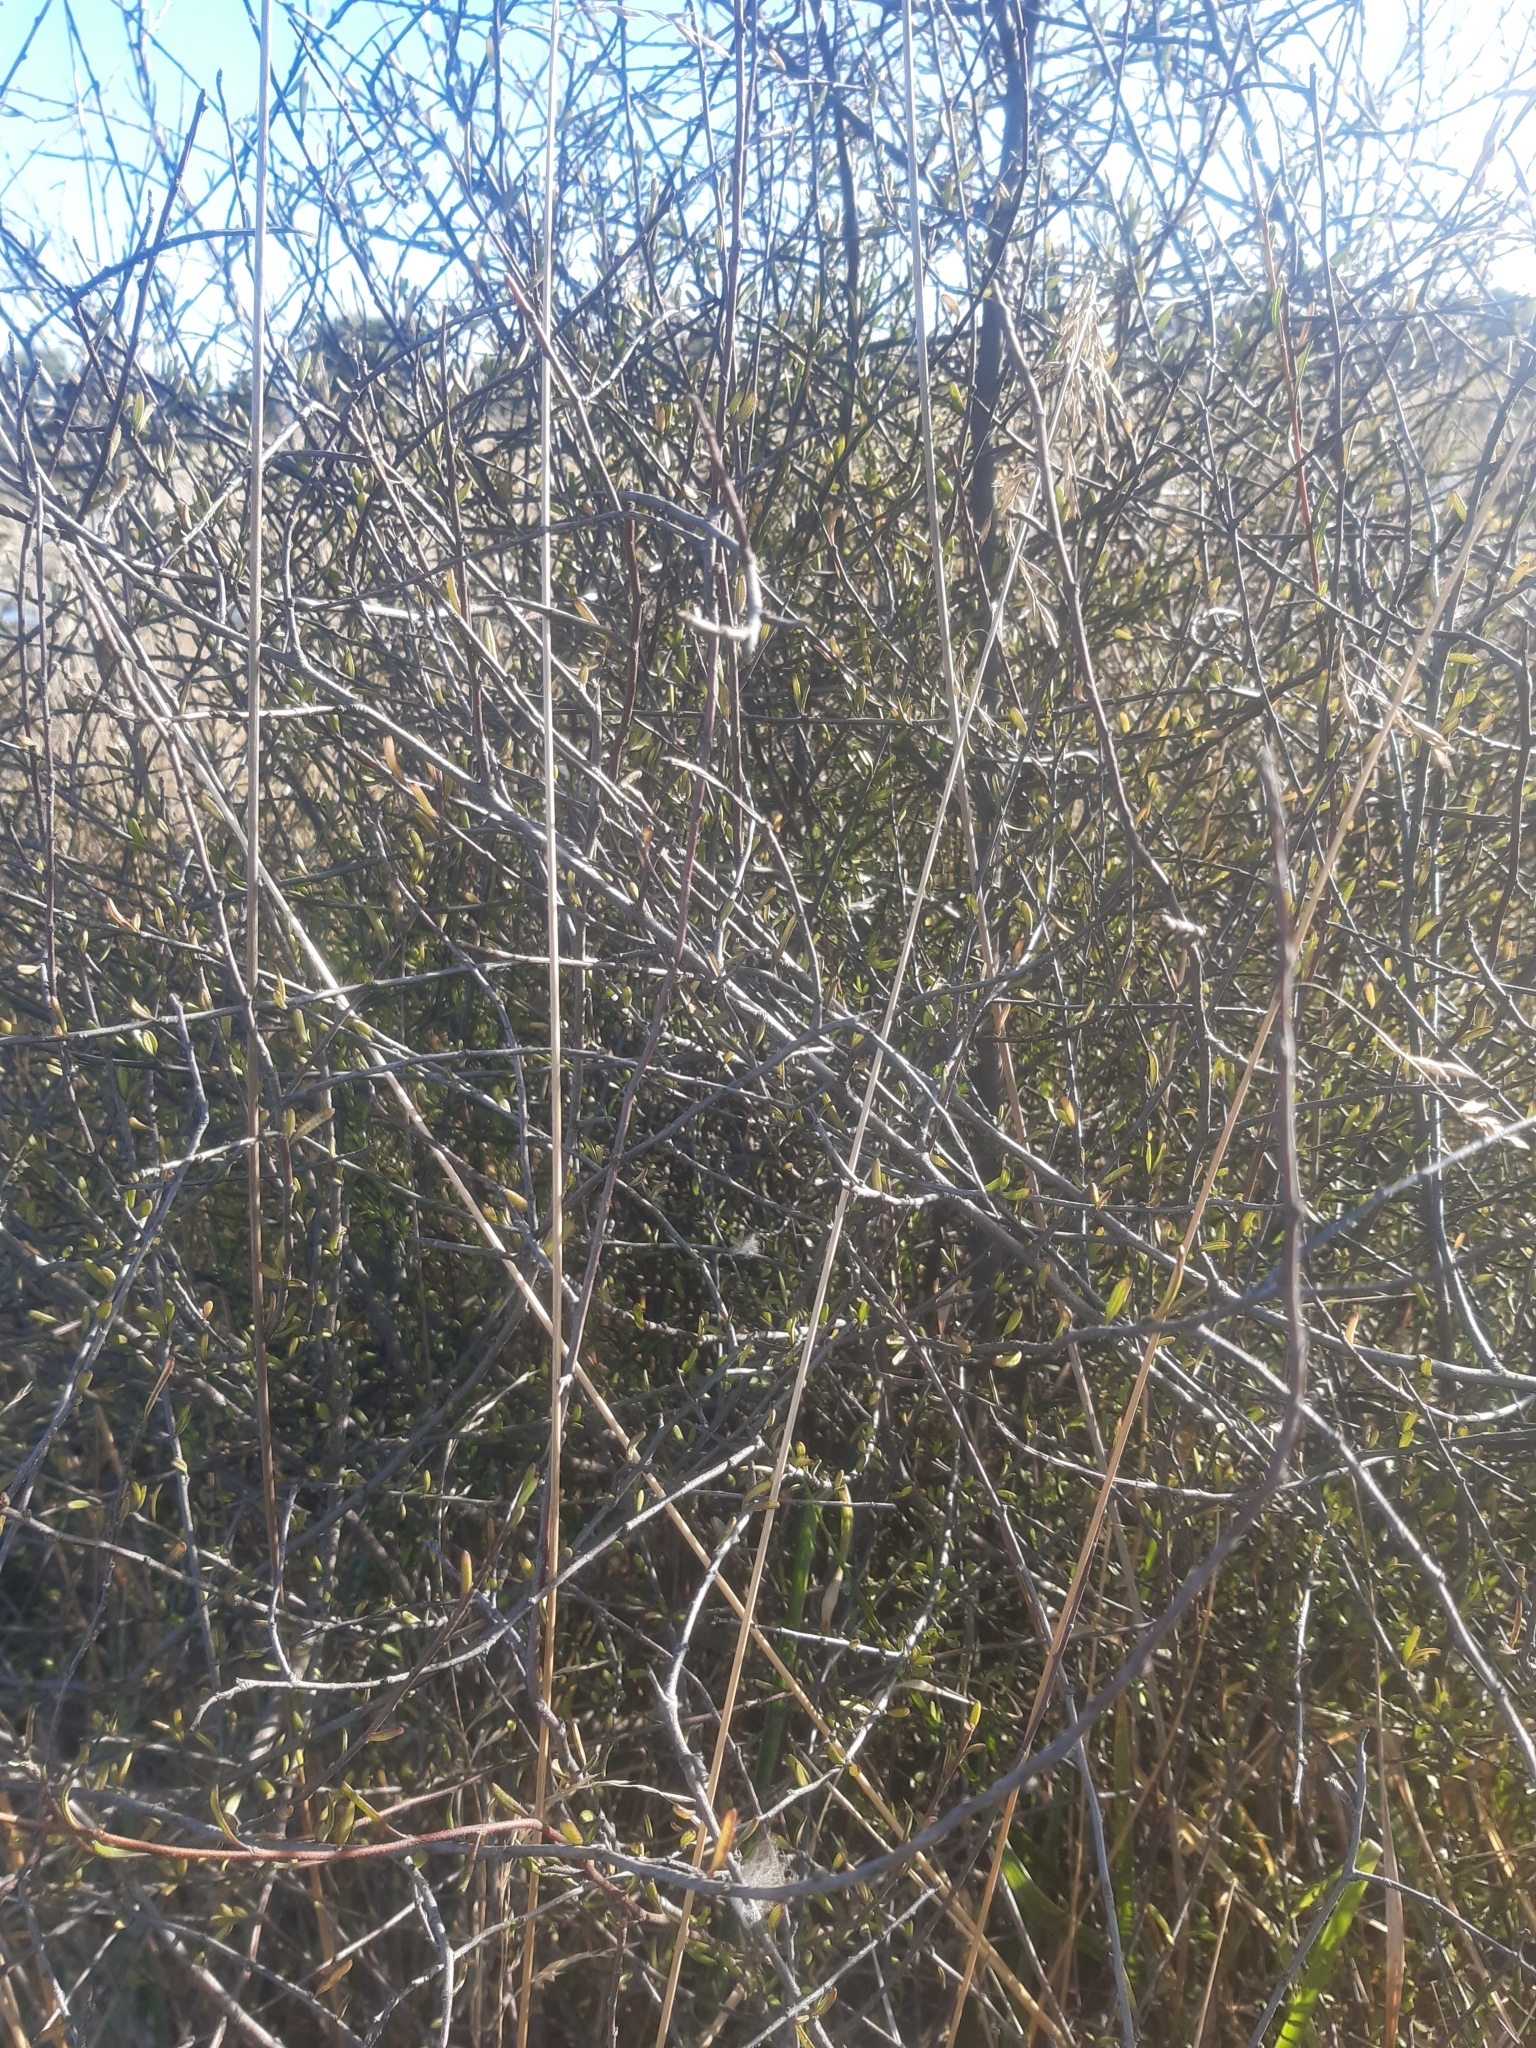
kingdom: Plantae
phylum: Tracheophyta
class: Magnoliopsida
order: Malvales
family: Malvaceae
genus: Plagianthus
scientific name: Plagianthus divaricatus
